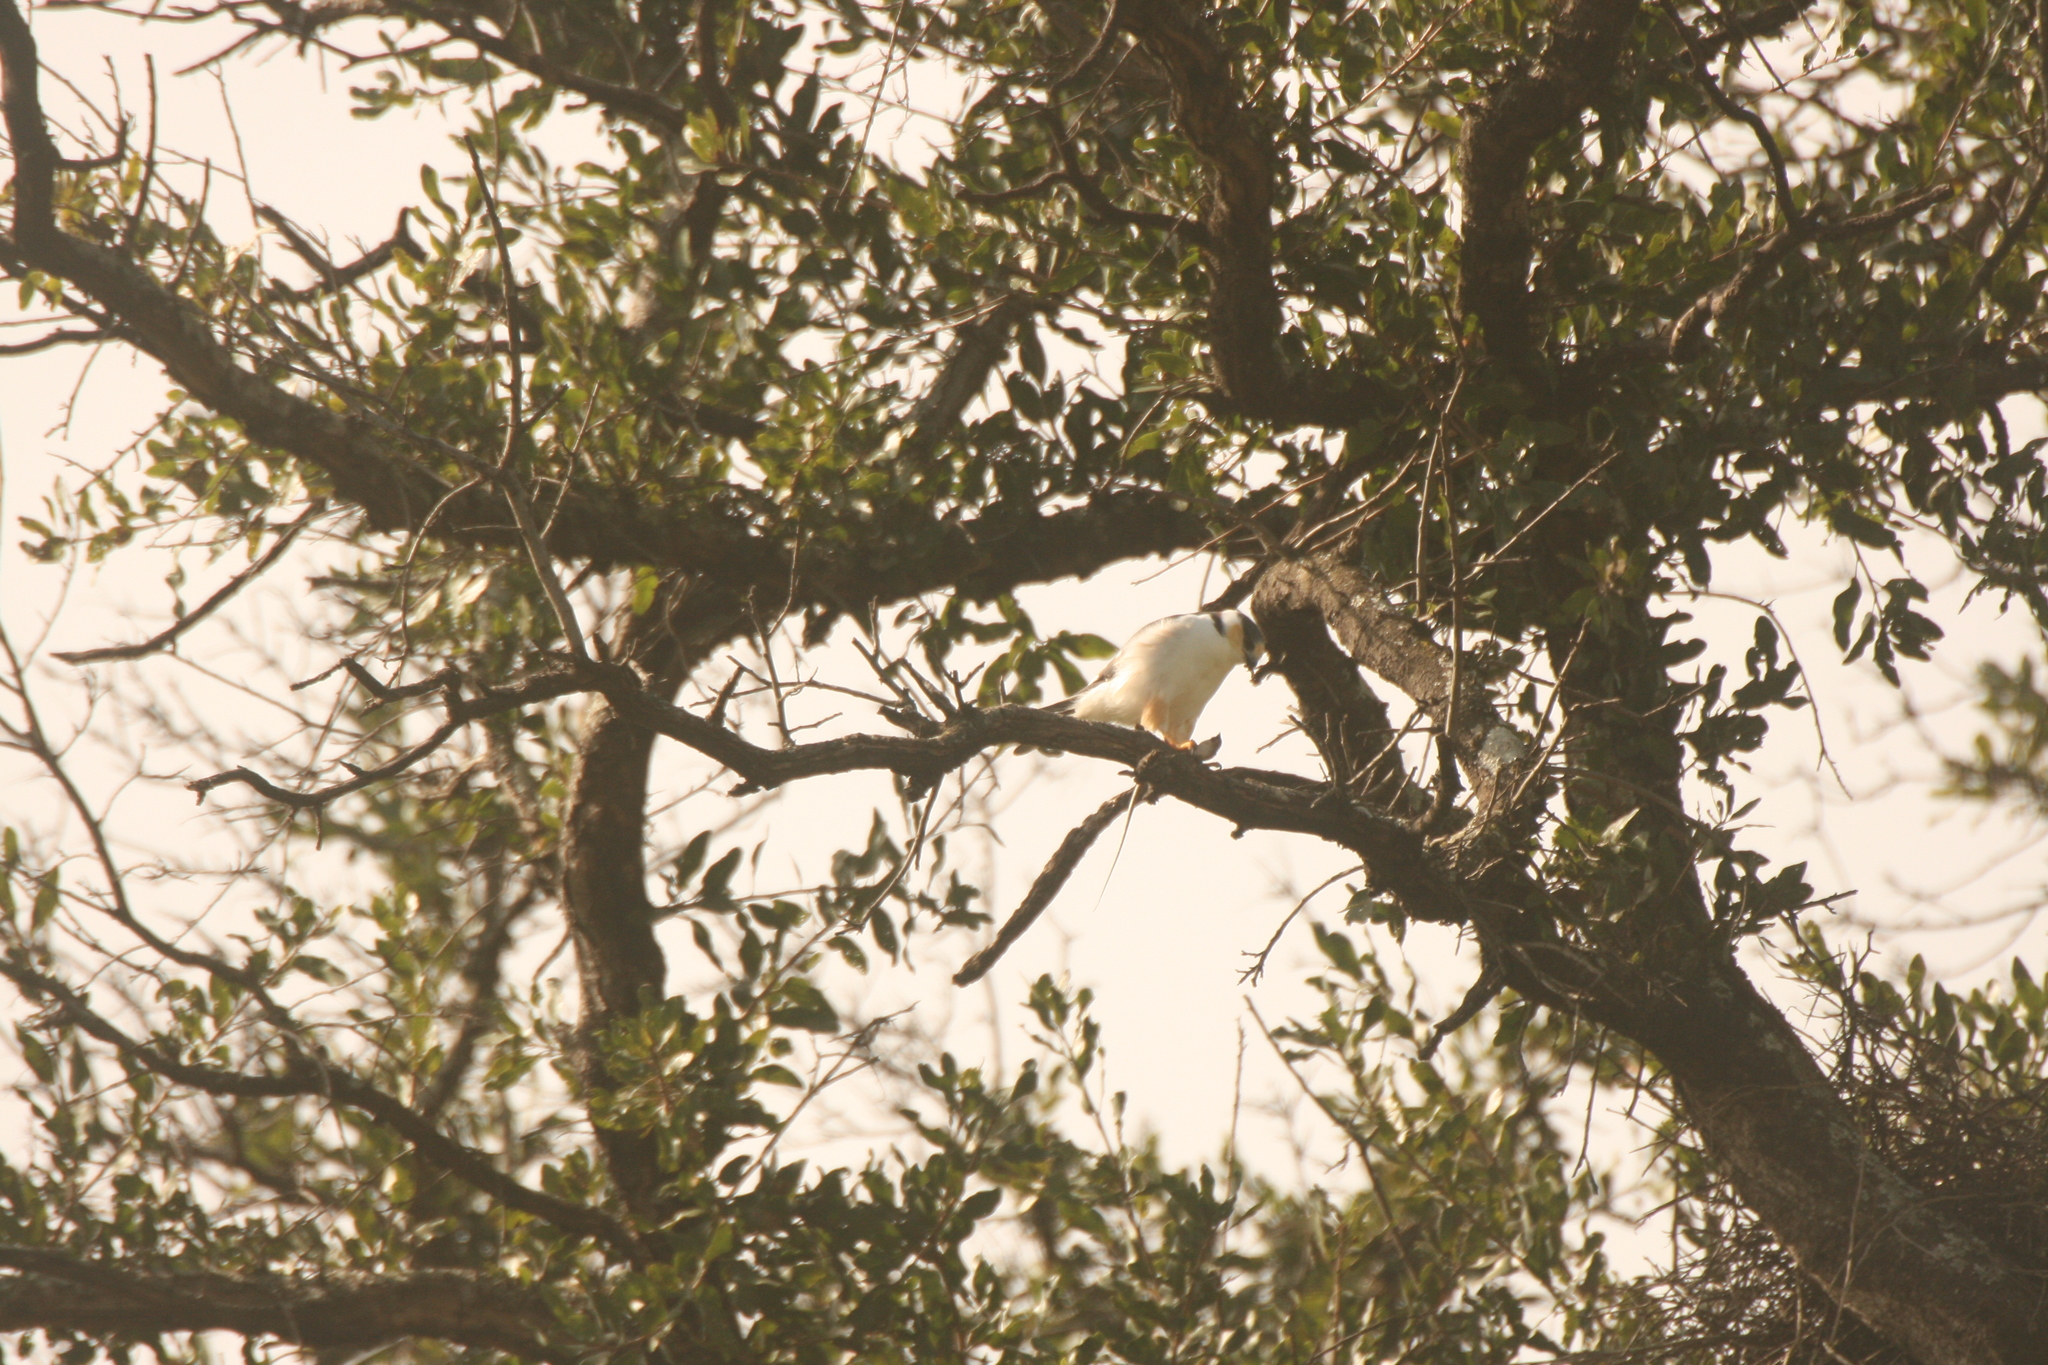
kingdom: Animalia
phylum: Chordata
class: Aves
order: Accipitriformes
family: Accipitridae
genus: Gampsonyx
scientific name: Gampsonyx swainsonii
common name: Pearl kite
